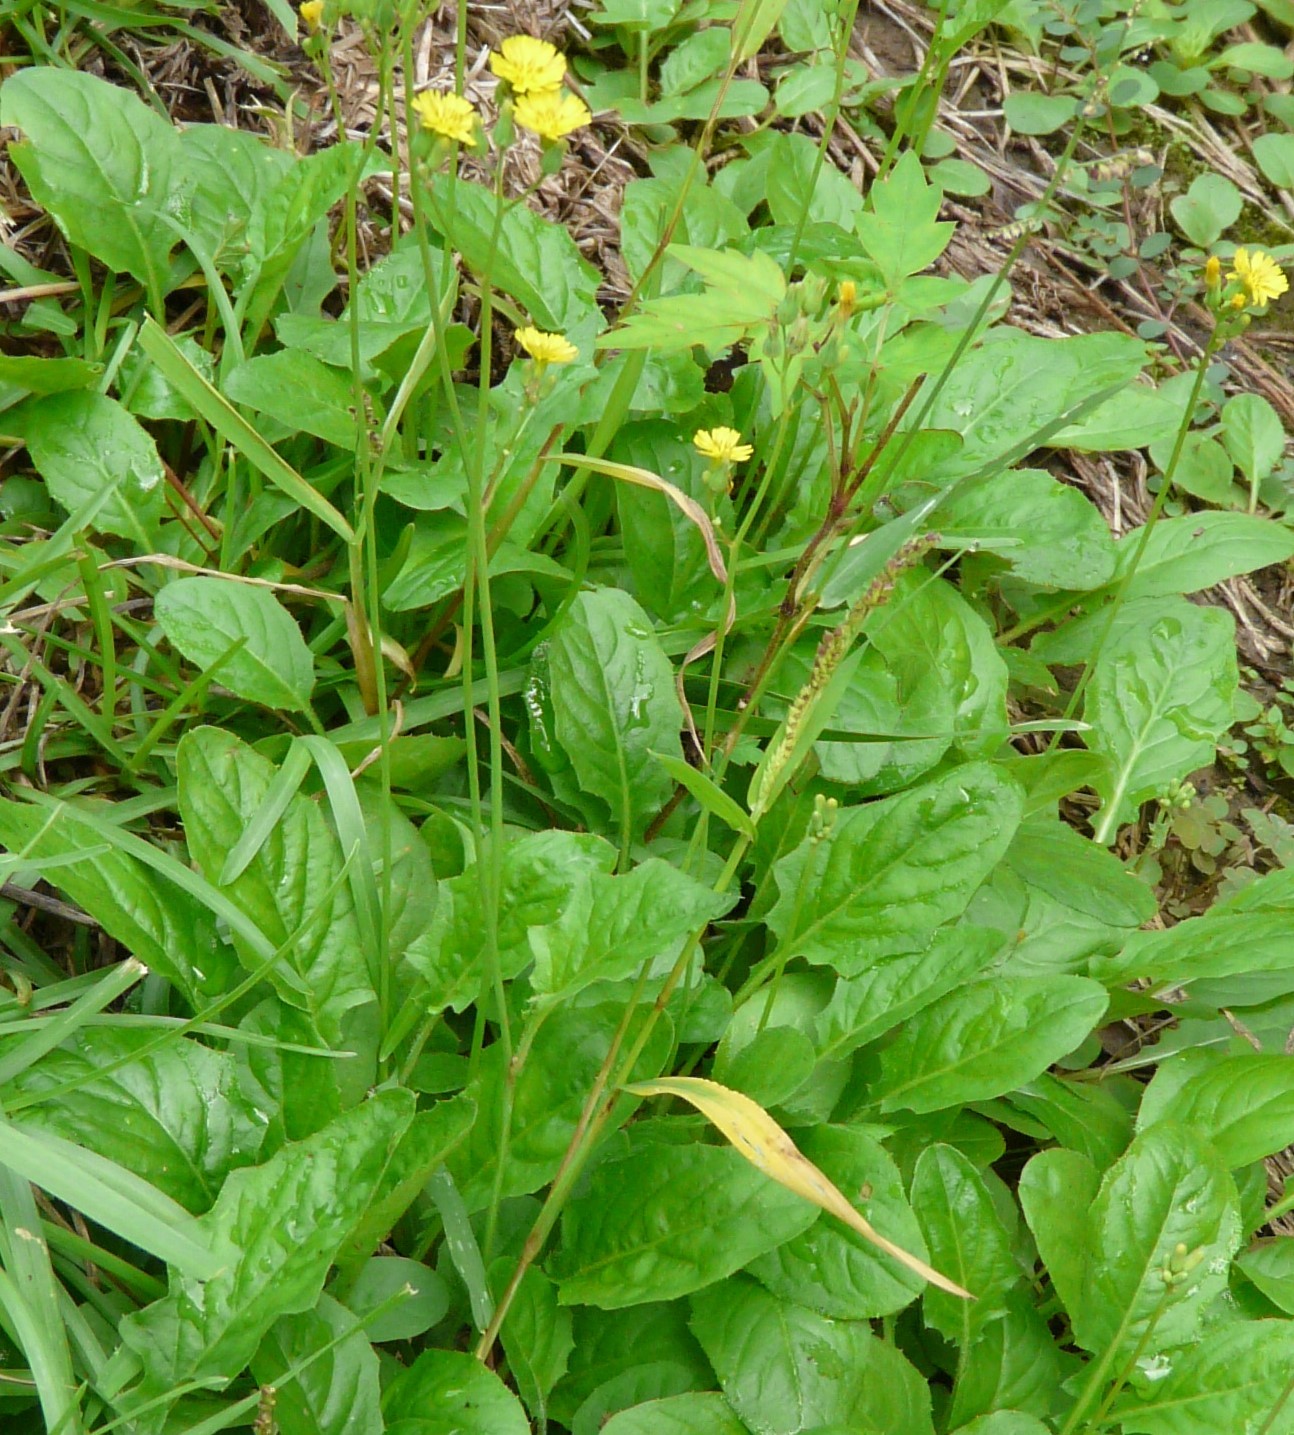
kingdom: Plantae
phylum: Tracheophyta
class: Magnoliopsida
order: Asterales
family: Asteraceae
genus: Youngia
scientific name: Youngia japonica
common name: Oriental false hawksbeard
